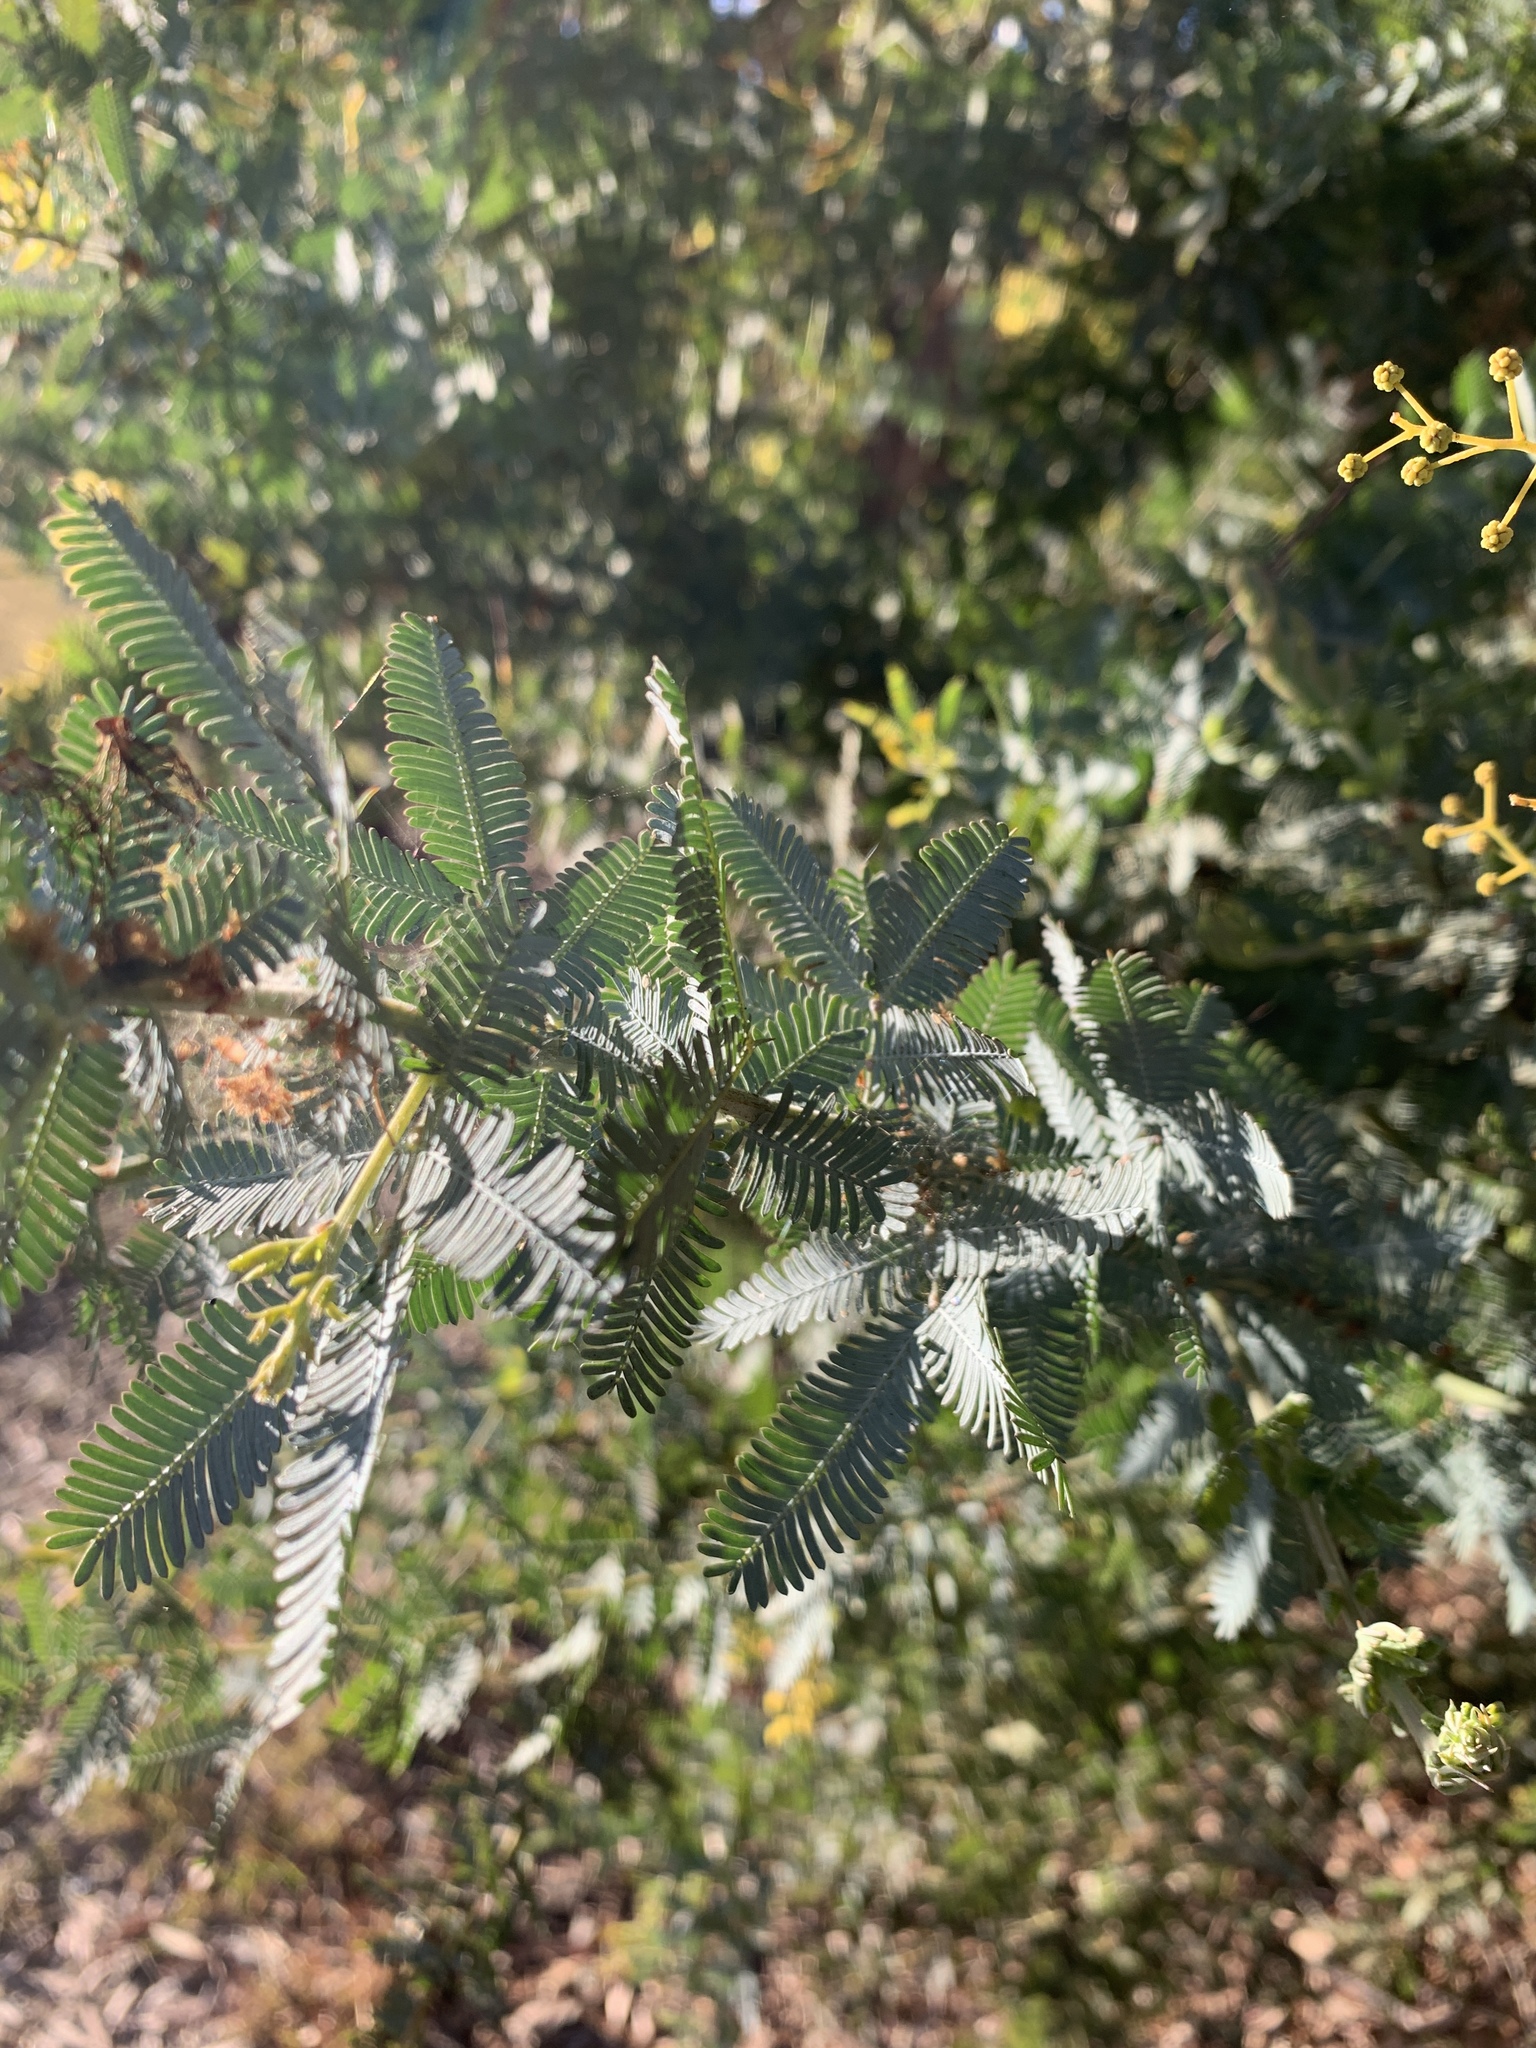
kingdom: Plantae
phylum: Tracheophyta
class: Magnoliopsida
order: Fabales
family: Fabaceae
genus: Acacia
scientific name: Acacia baileyana
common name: Cootamundra wattle
